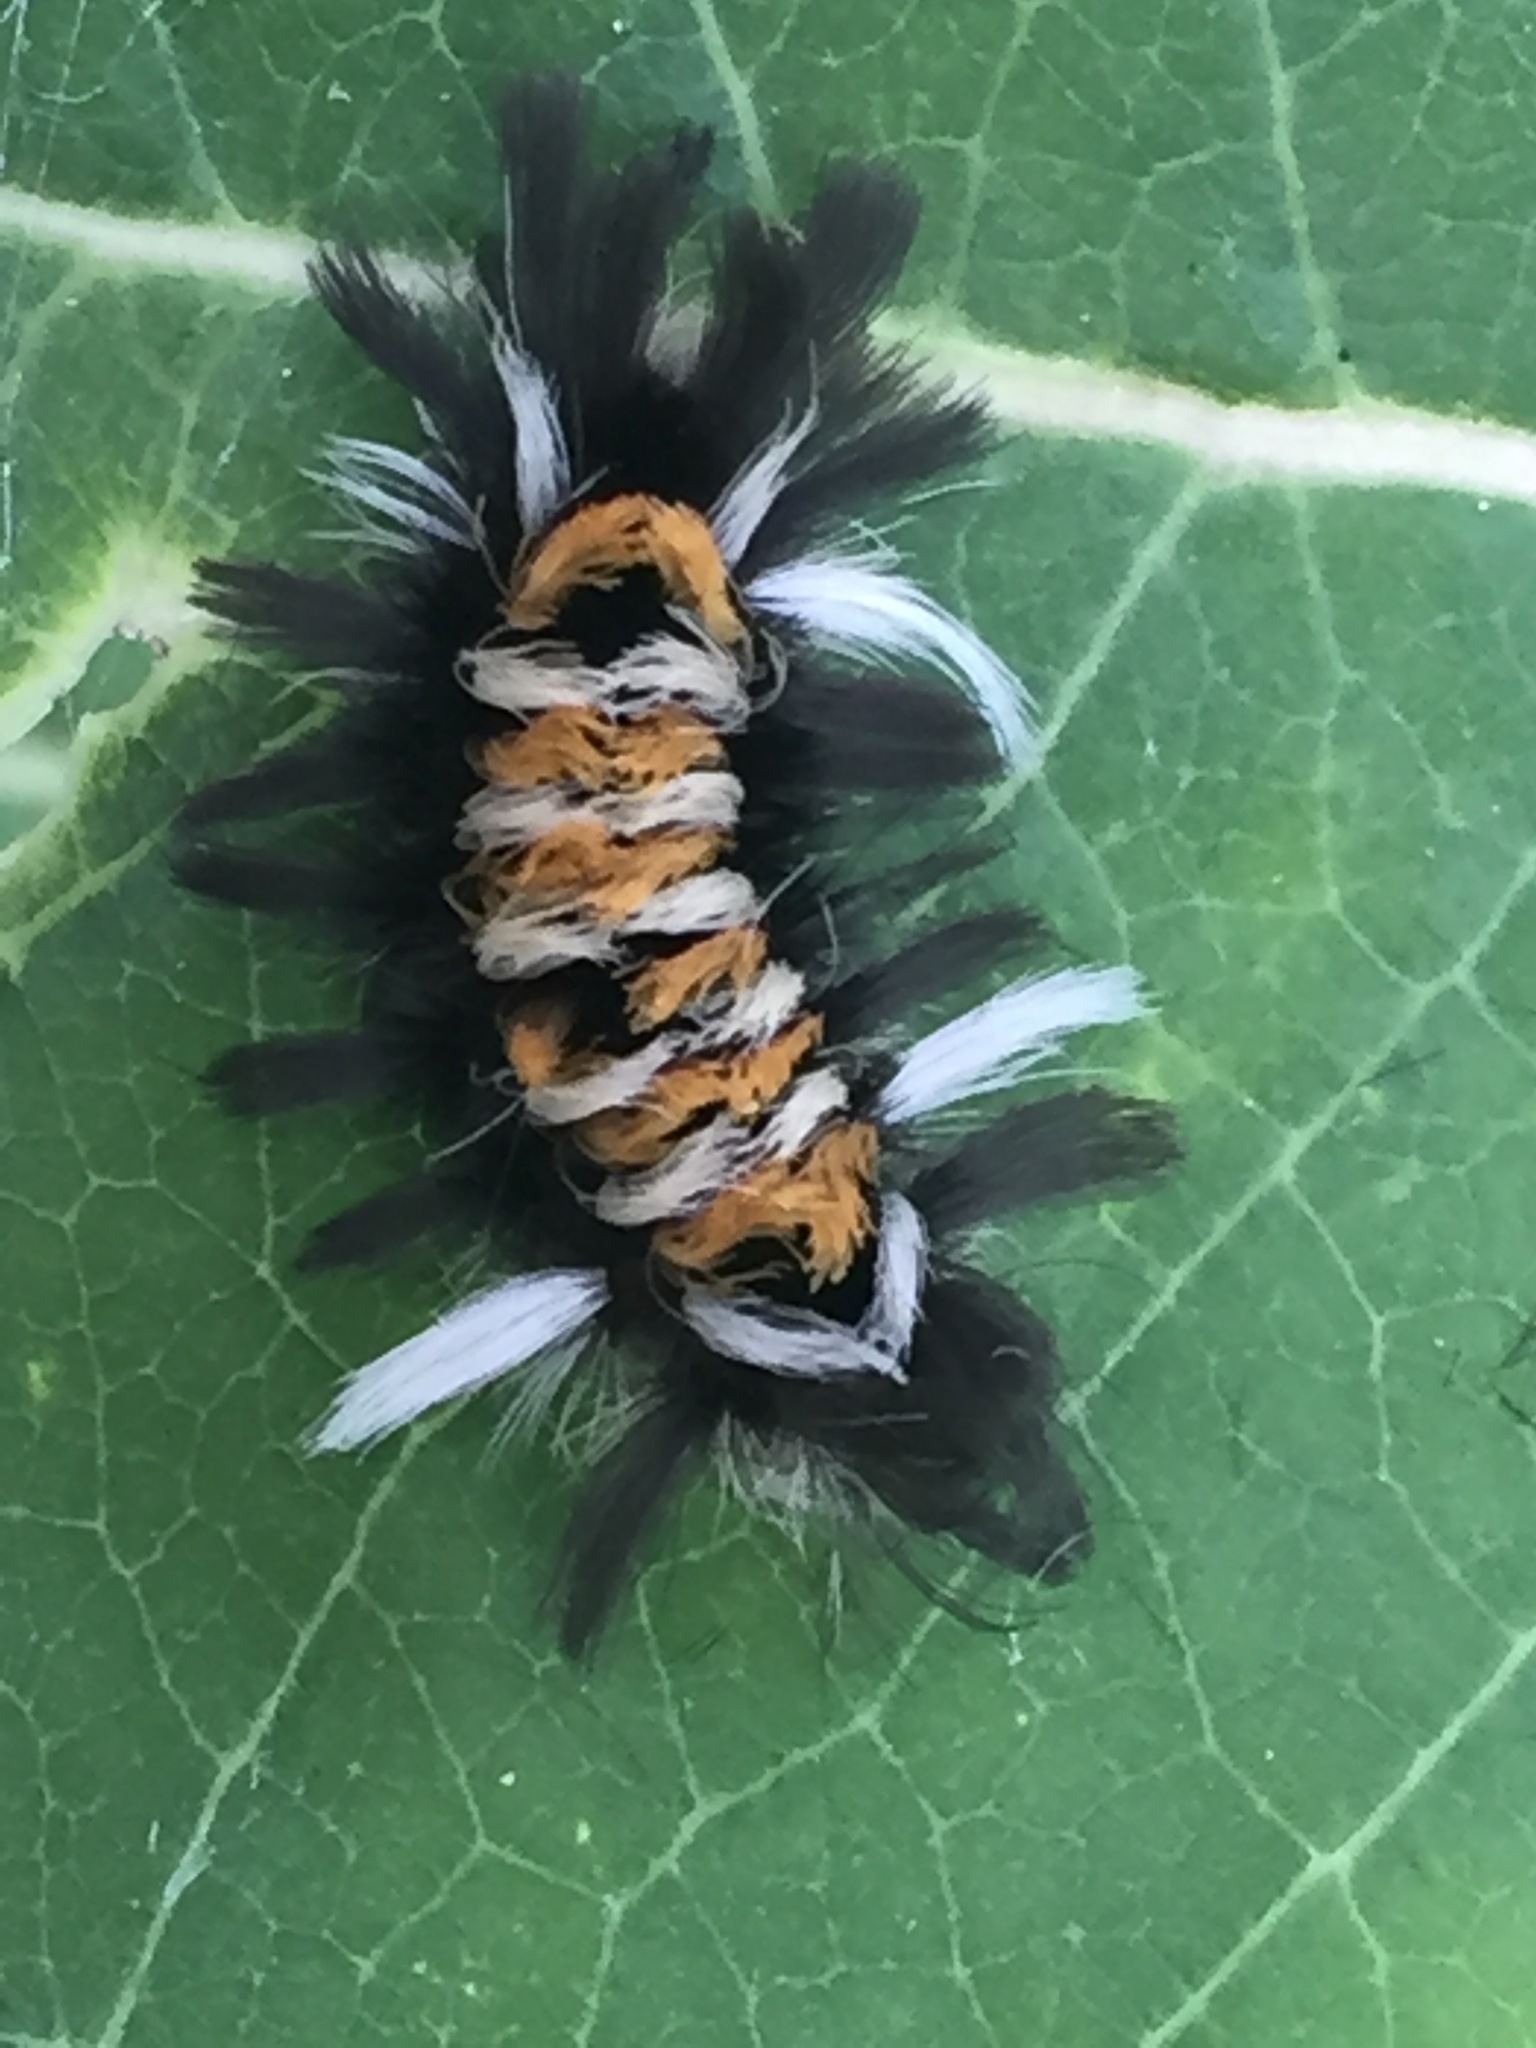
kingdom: Animalia
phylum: Arthropoda
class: Insecta
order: Lepidoptera
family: Erebidae
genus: Euchaetes
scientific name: Euchaetes egle
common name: Milkweed tussock moth
